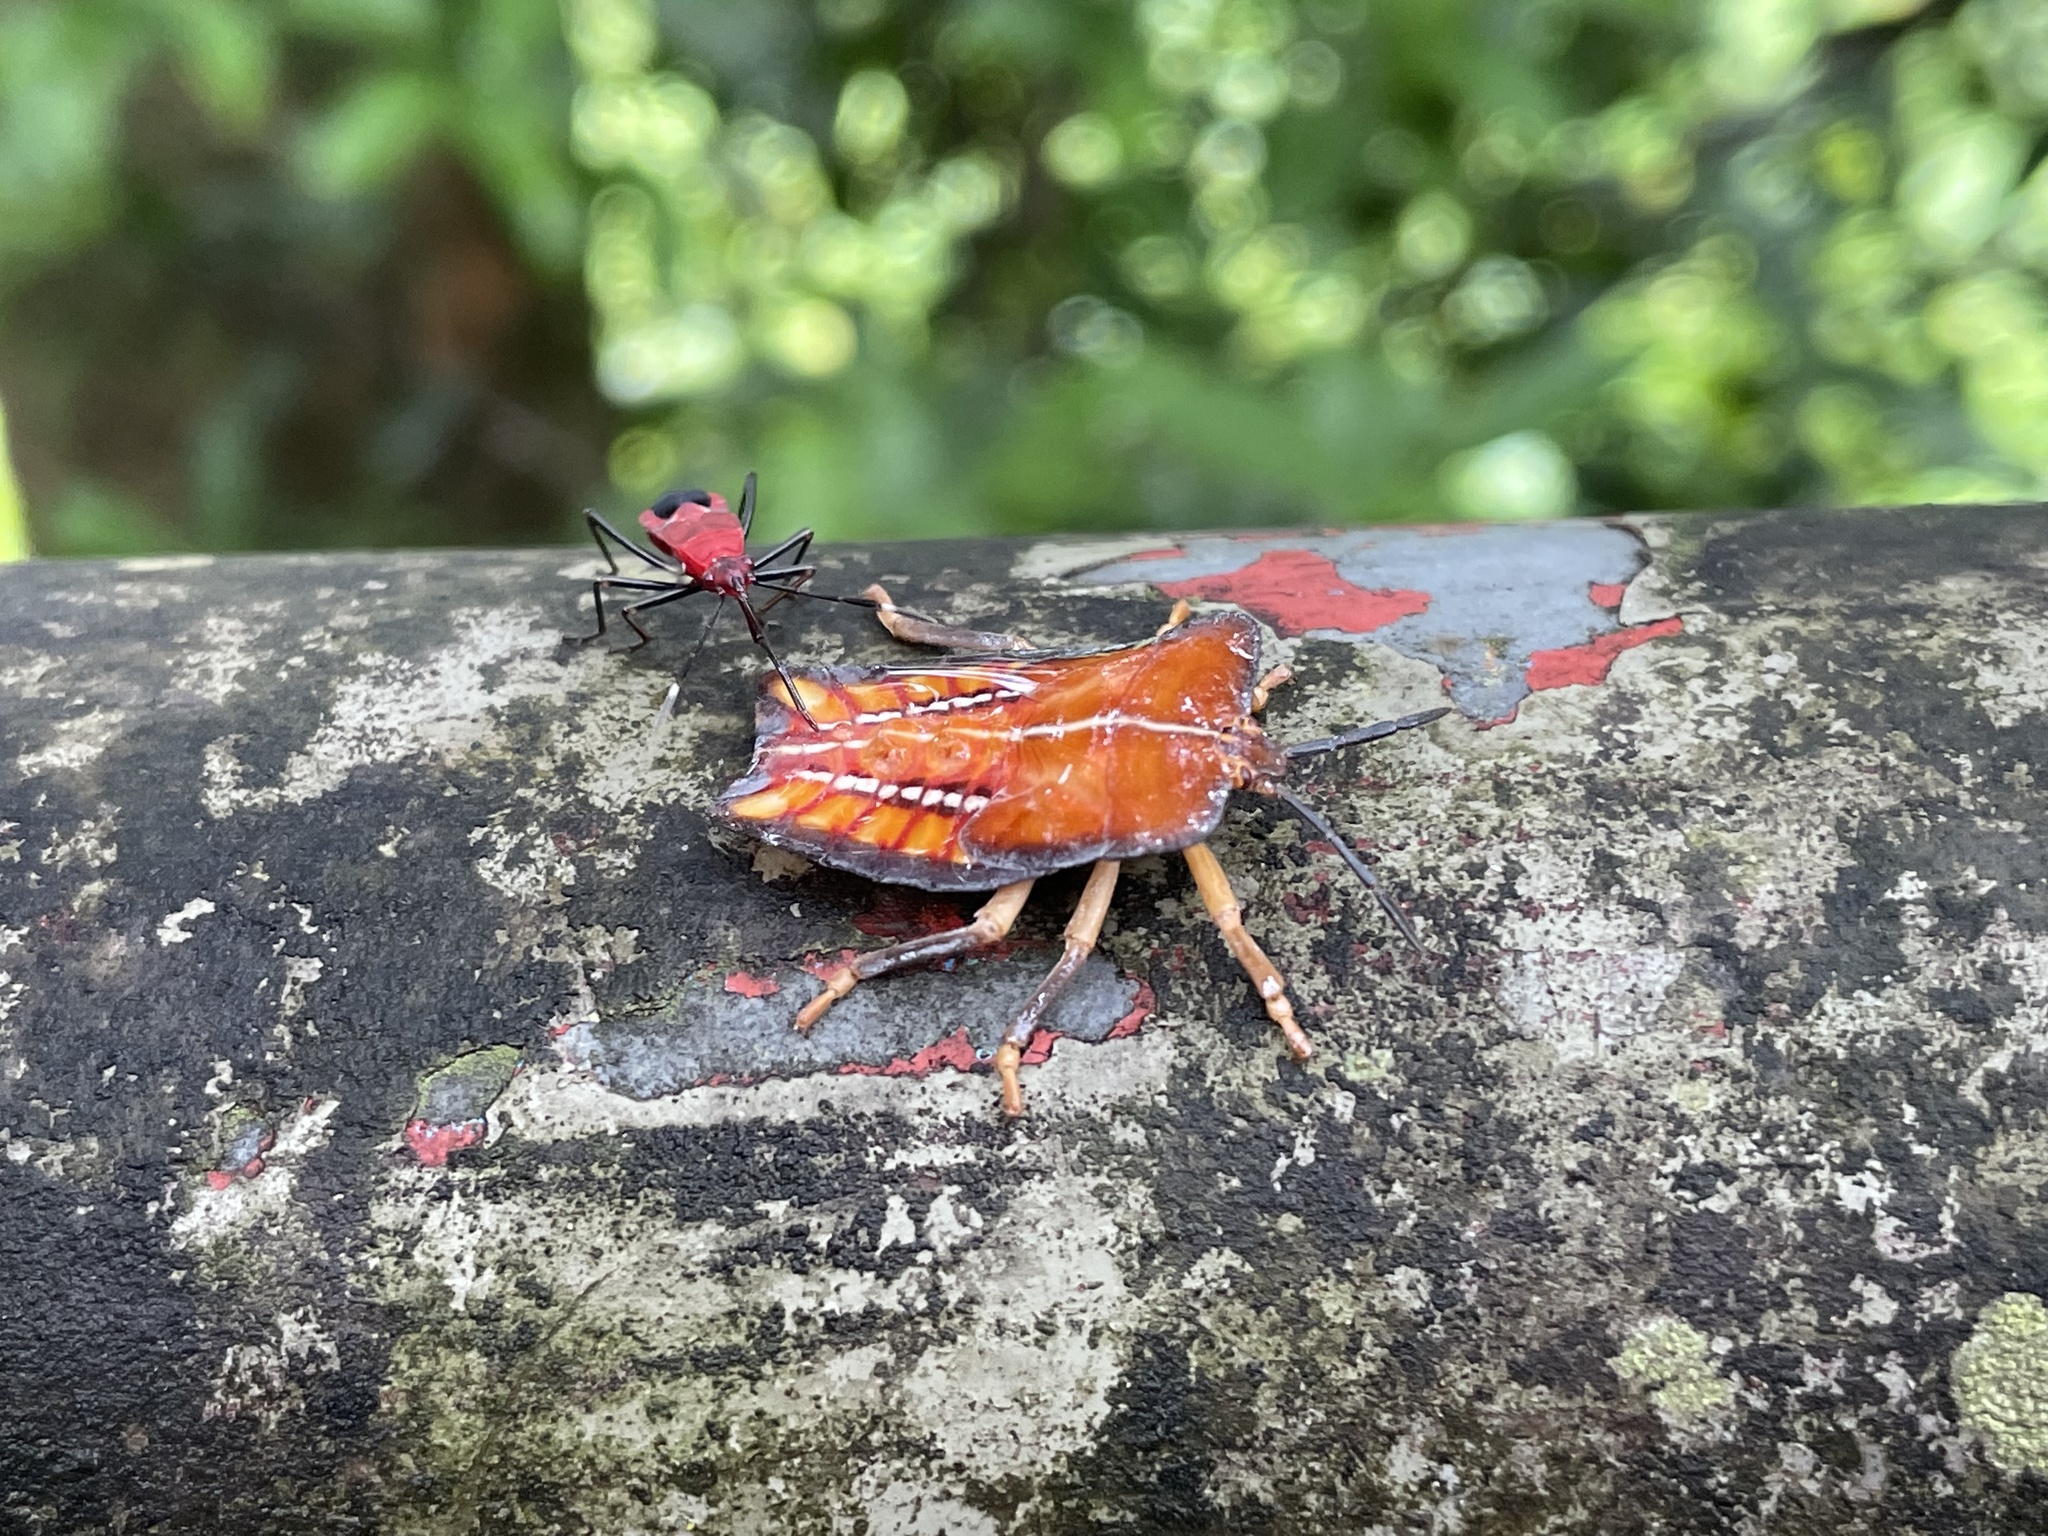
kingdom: Animalia
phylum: Arthropoda
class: Insecta
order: Hemiptera
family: Tessaratomidae
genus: Tessaratoma
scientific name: Tessaratoma papillosa
